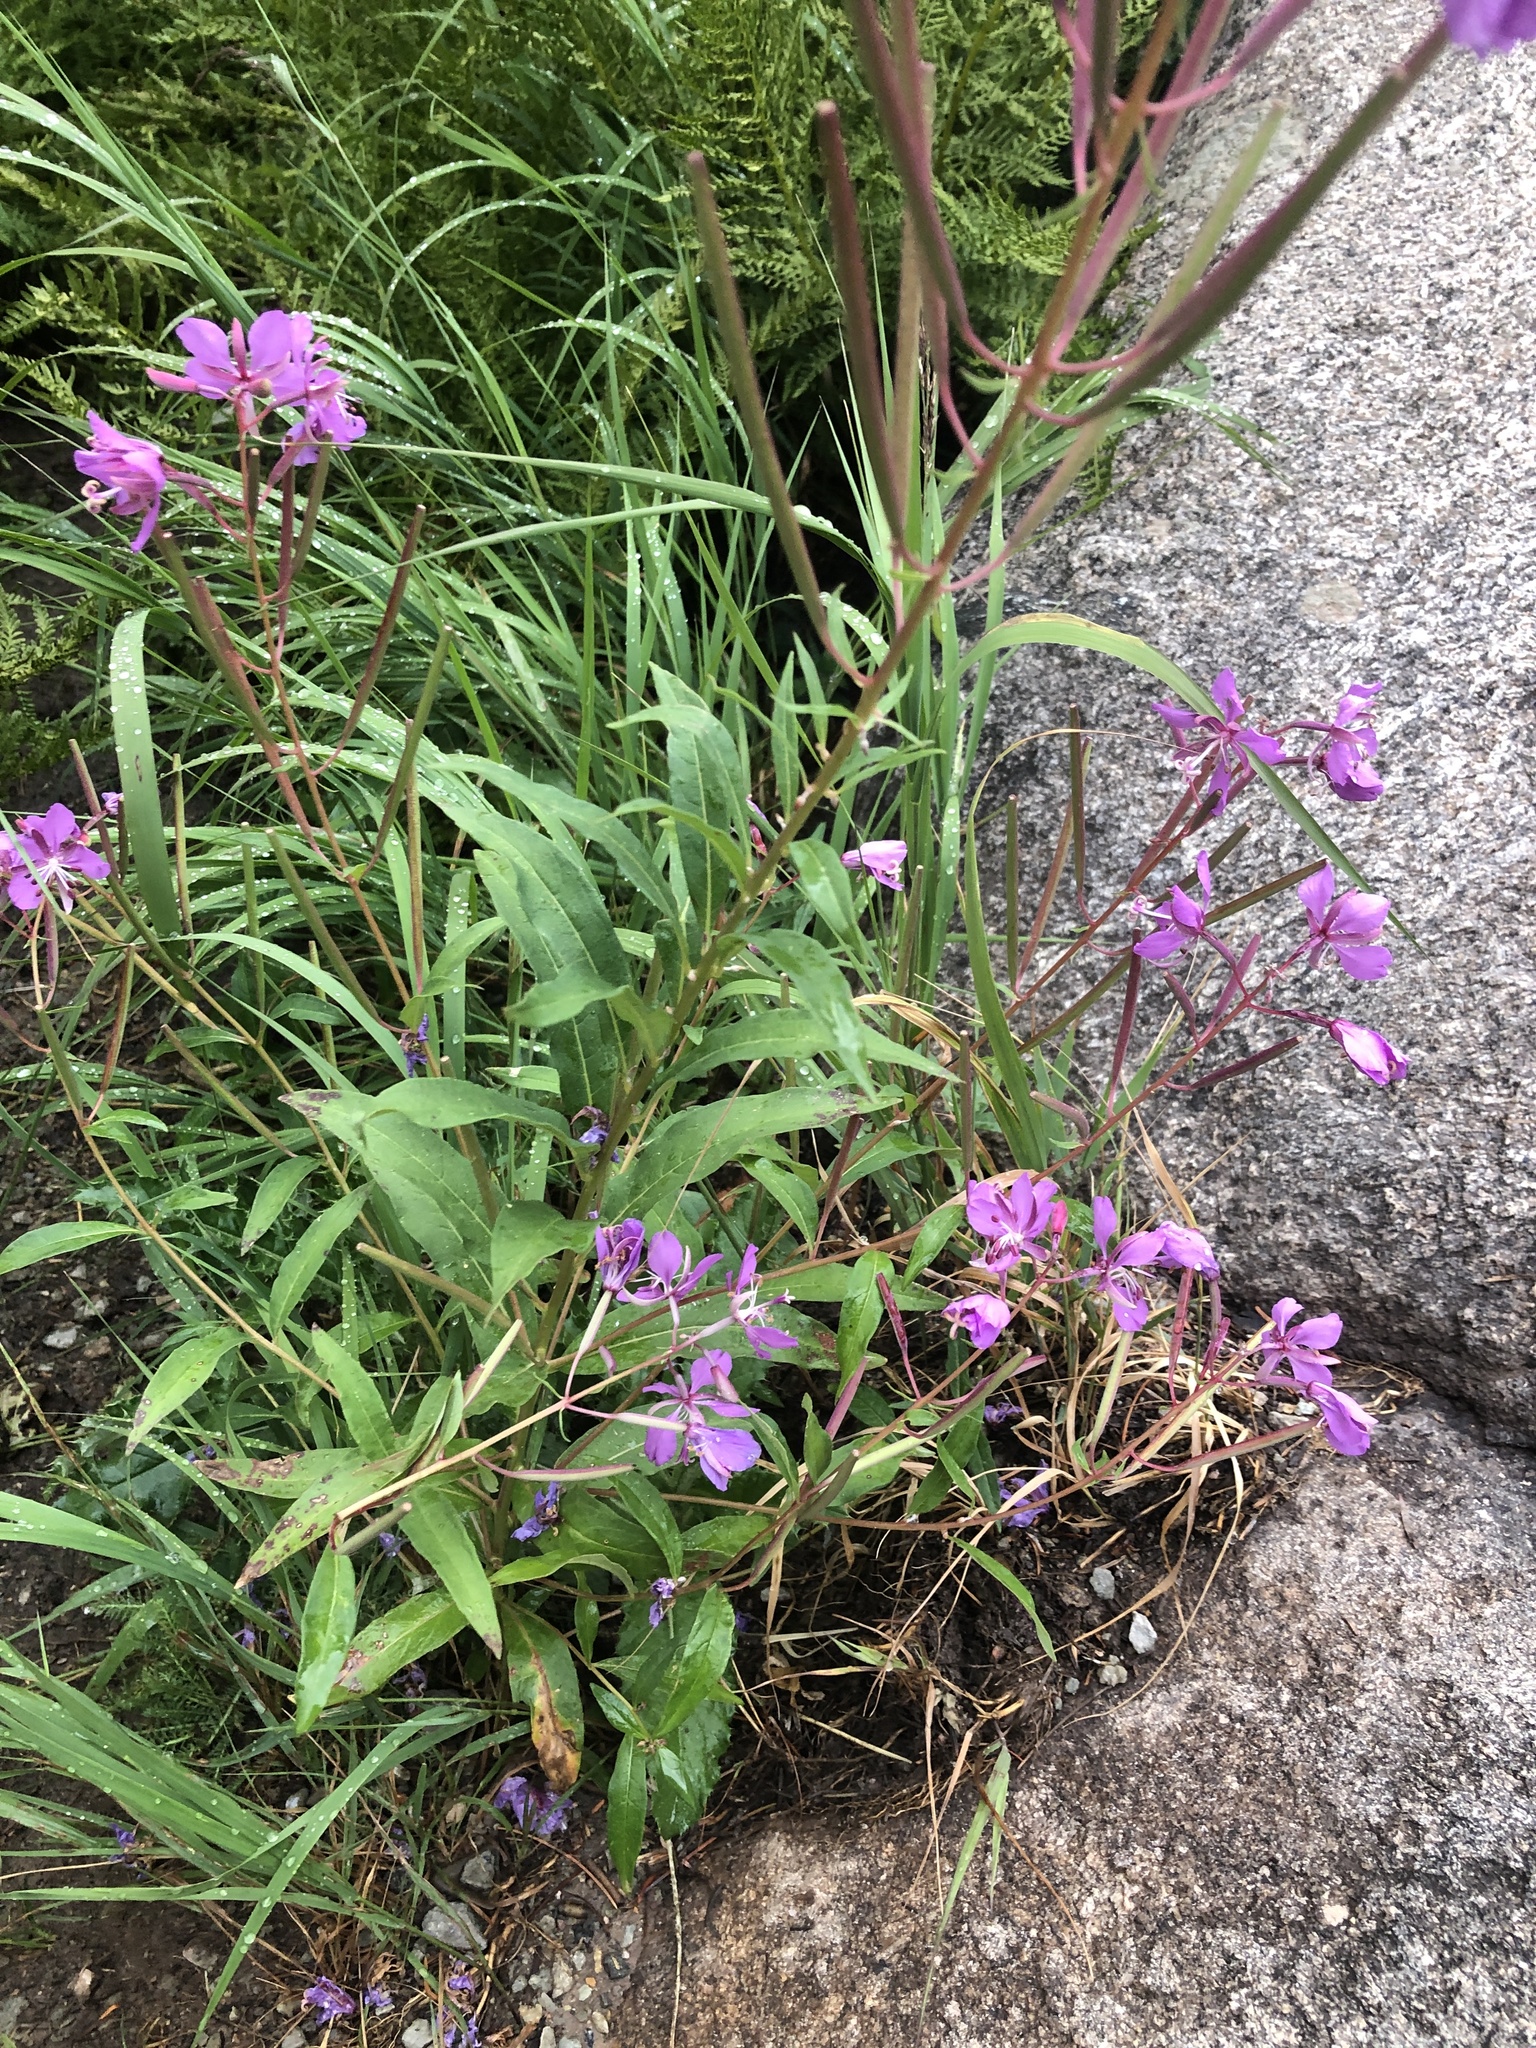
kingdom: Plantae
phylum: Tracheophyta
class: Magnoliopsida
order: Myrtales
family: Onagraceae
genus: Chamaenerion
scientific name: Chamaenerion angustifolium
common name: Fireweed
